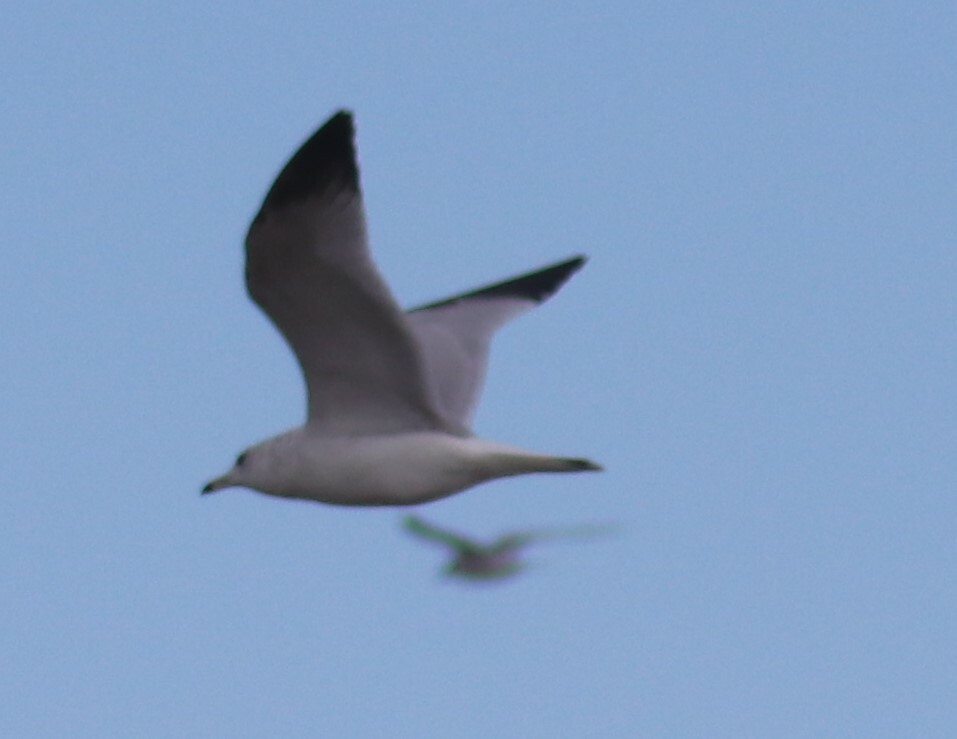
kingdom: Animalia
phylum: Chordata
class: Aves
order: Charadriiformes
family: Laridae
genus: Larus
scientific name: Larus delawarensis
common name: Ring-billed gull
